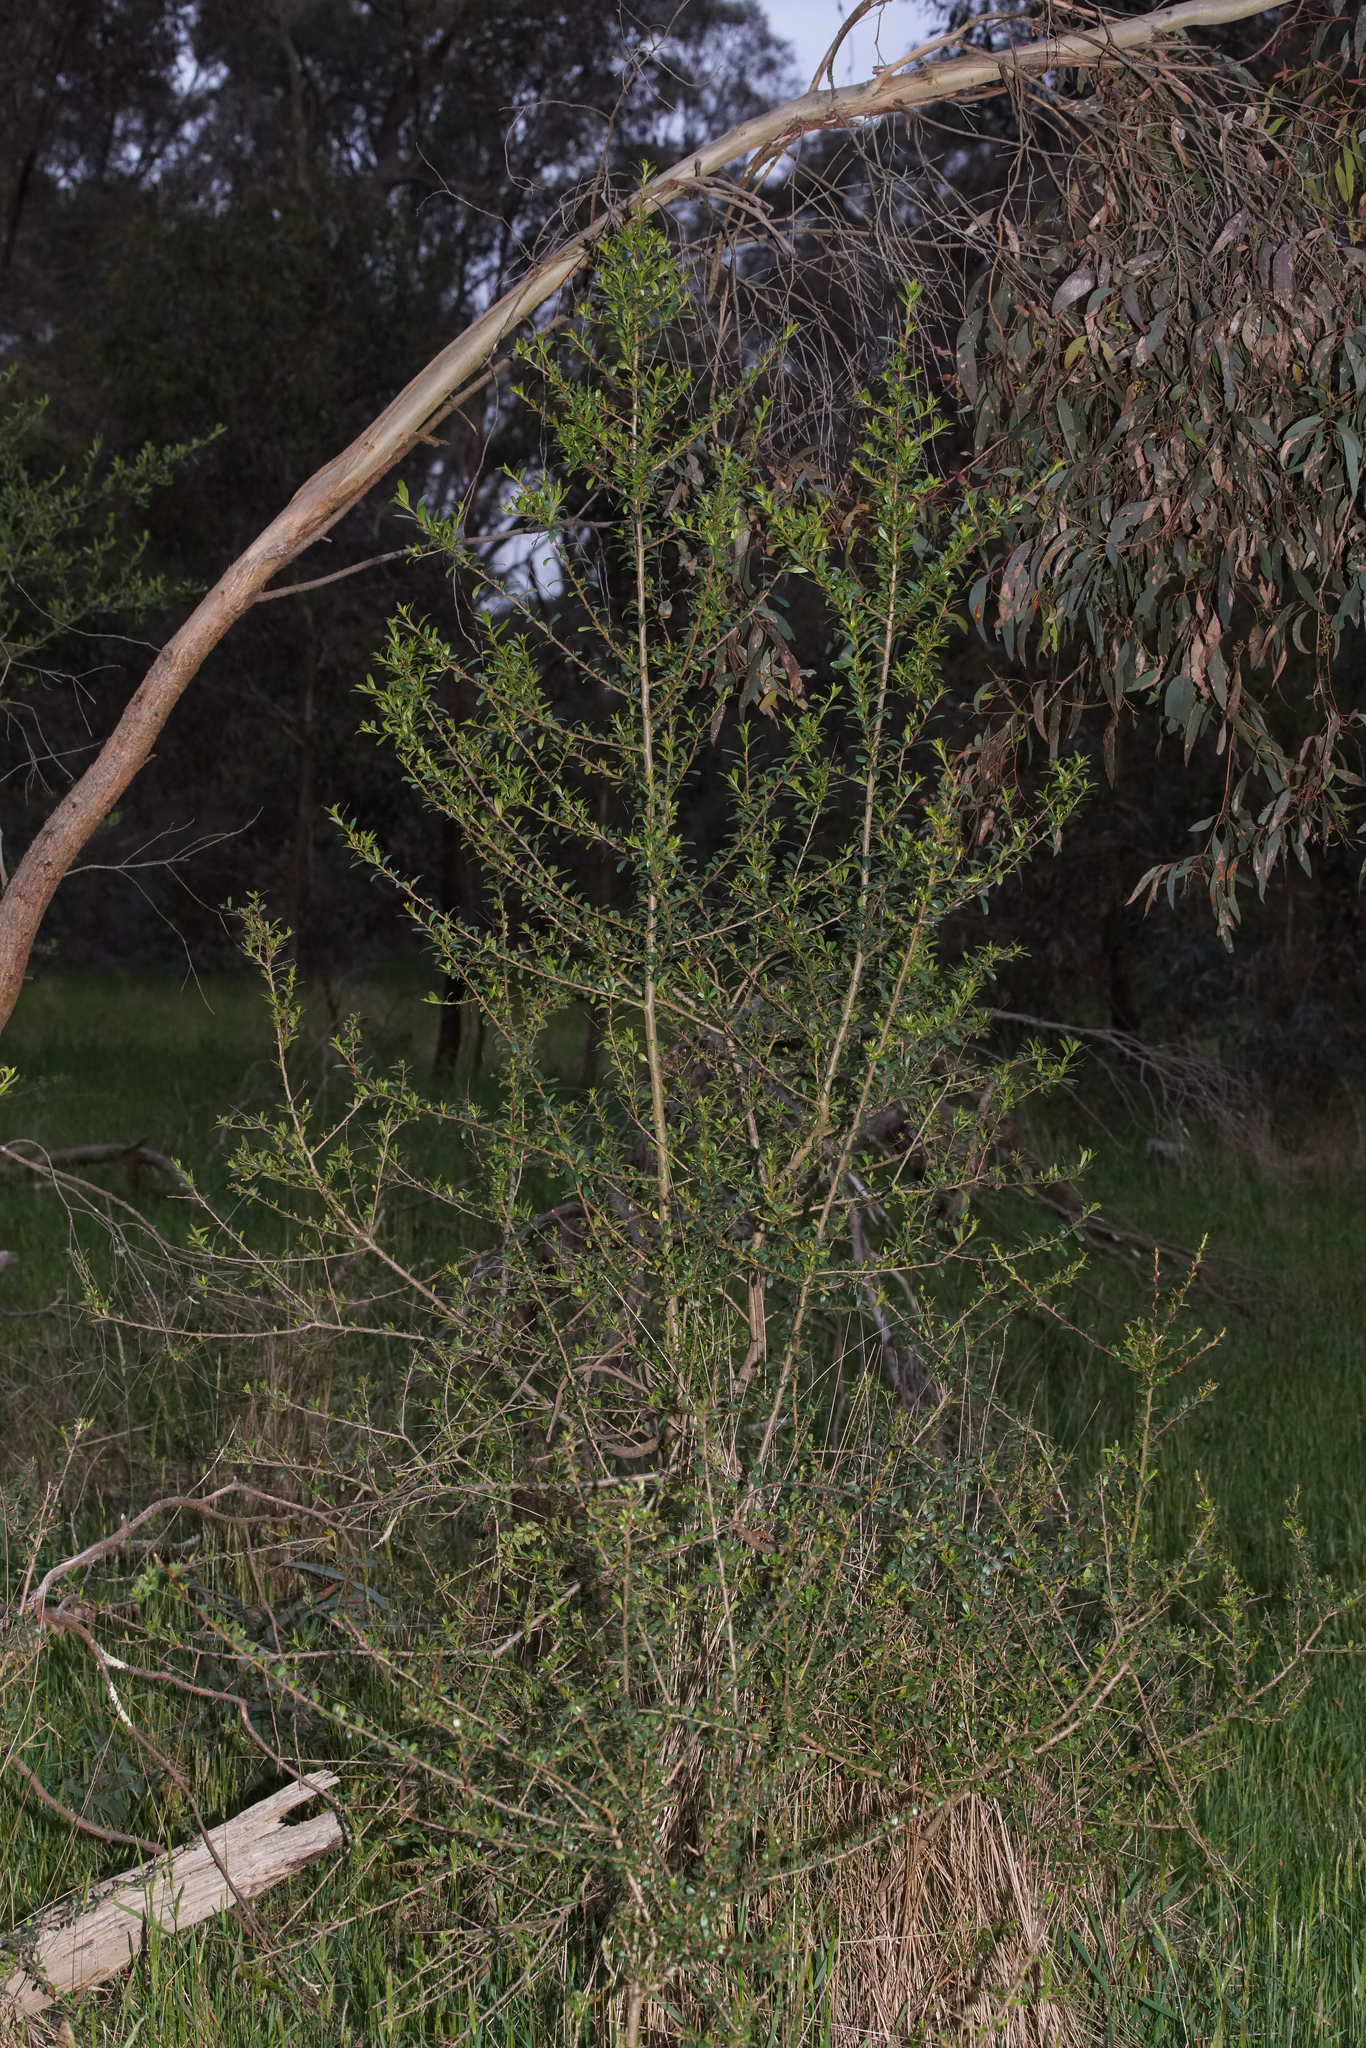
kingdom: Plantae
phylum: Tracheophyta
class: Magnoliopsida
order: Apiales
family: Pittosporaceae
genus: Bursaria
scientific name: Bursaria spinosa
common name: Australian blackthorn
